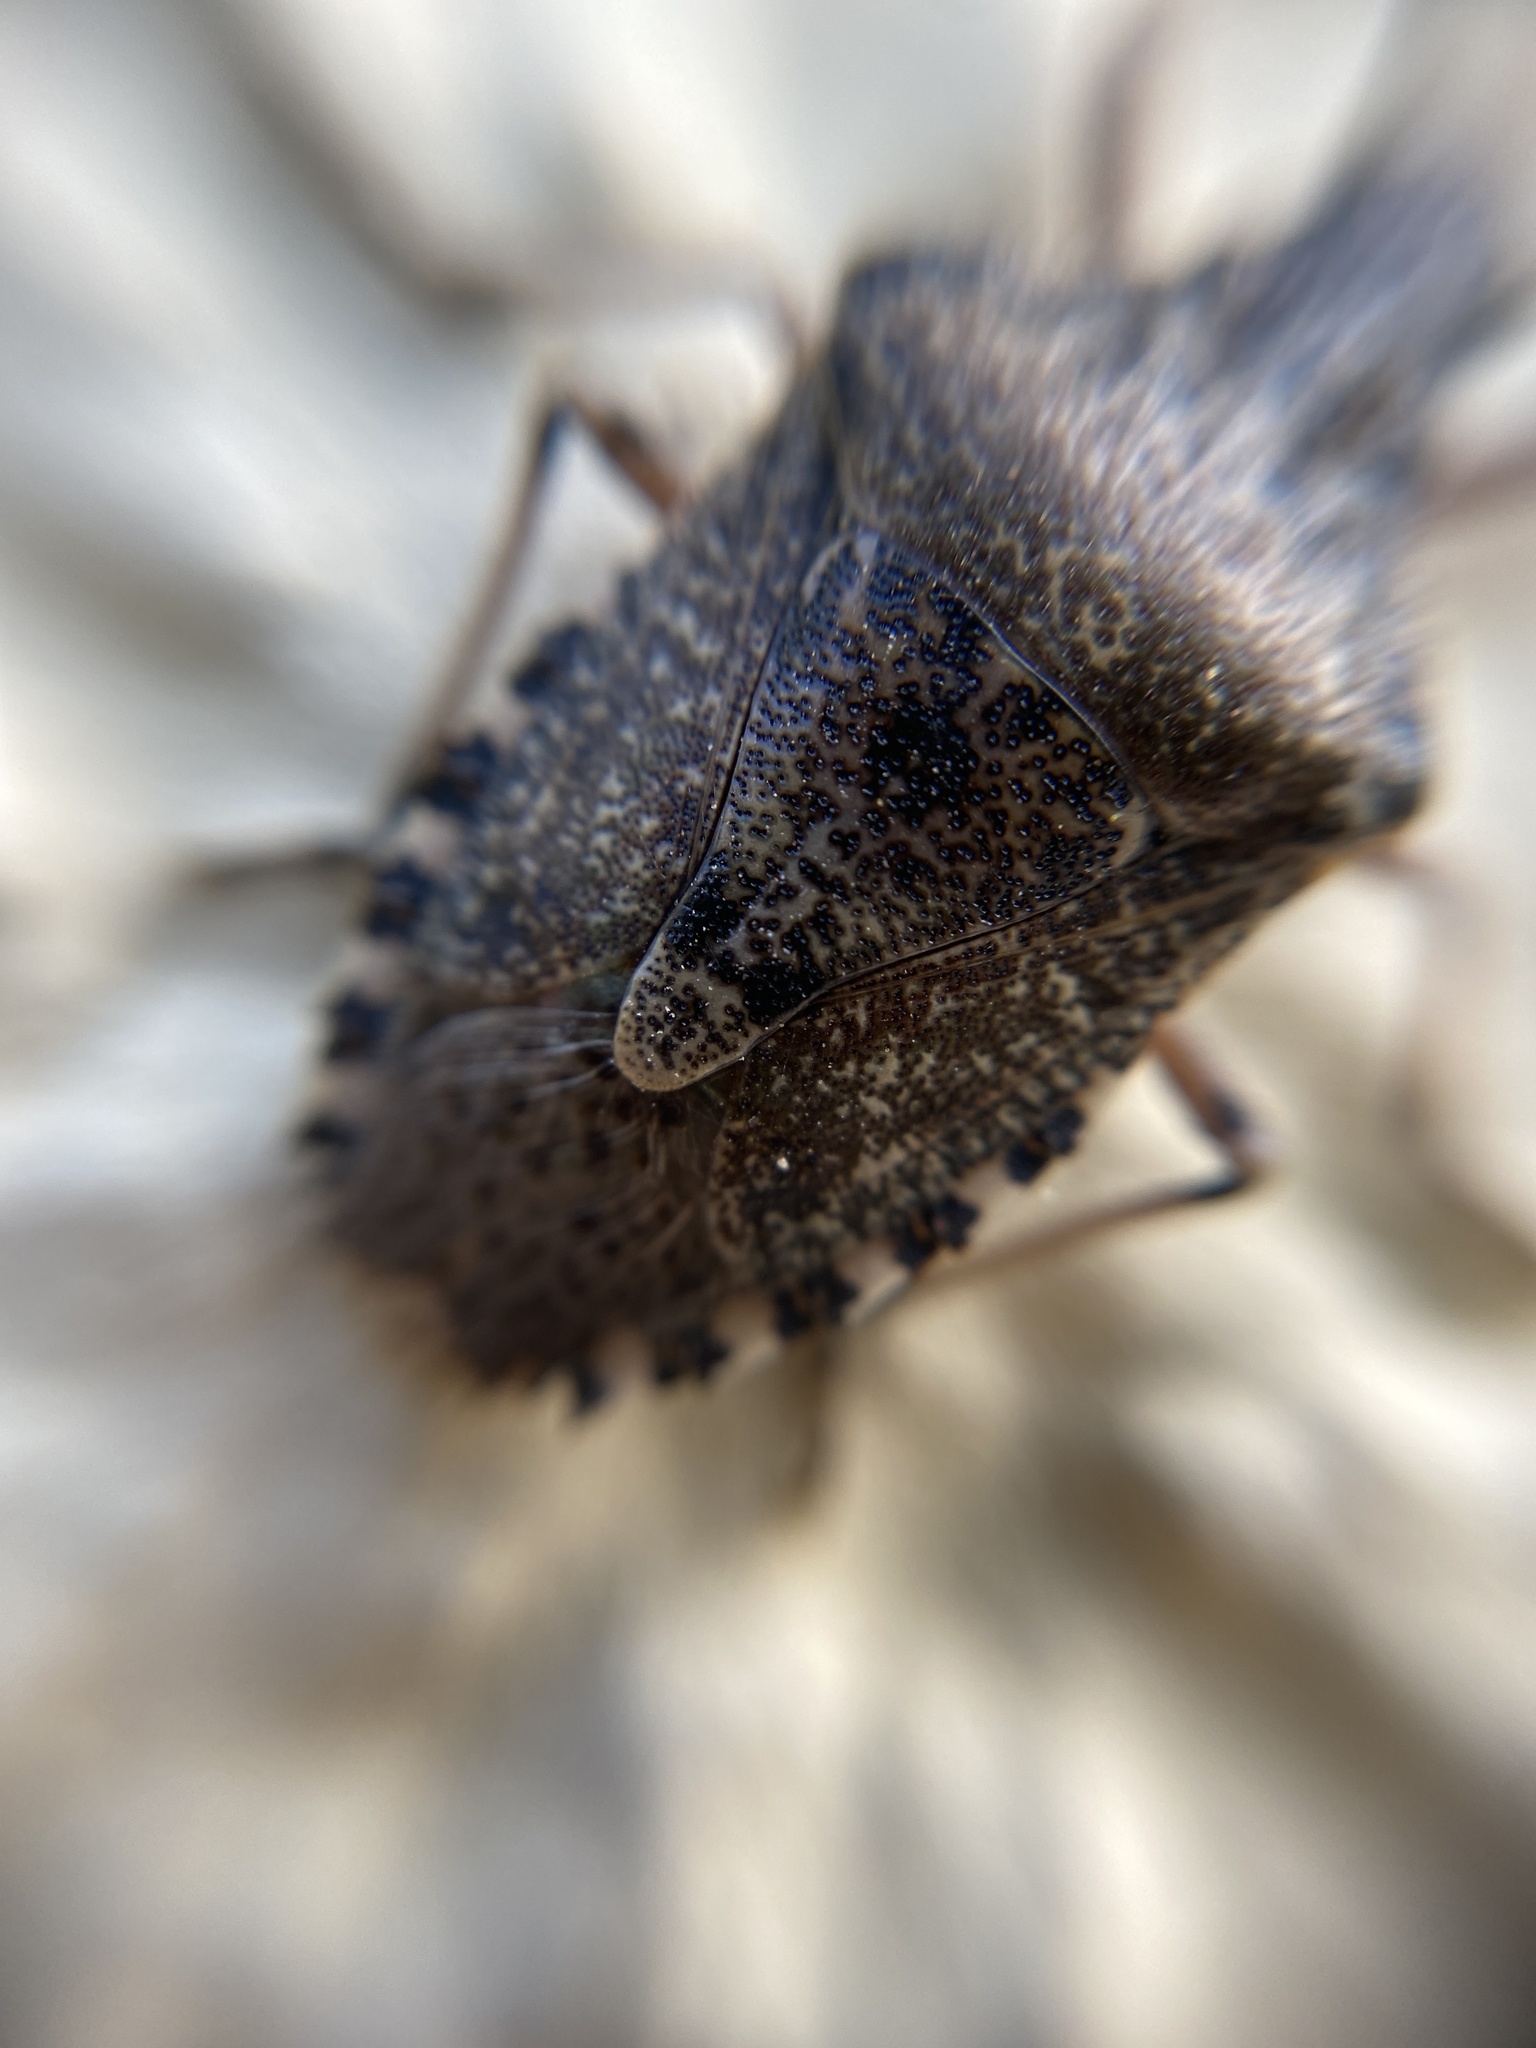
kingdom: Animalia
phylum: Arthropoda
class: Insecta
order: Hemiptera
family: Pentatomidae
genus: Rhaphigaster
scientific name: Rhaphigaster nebulosa
